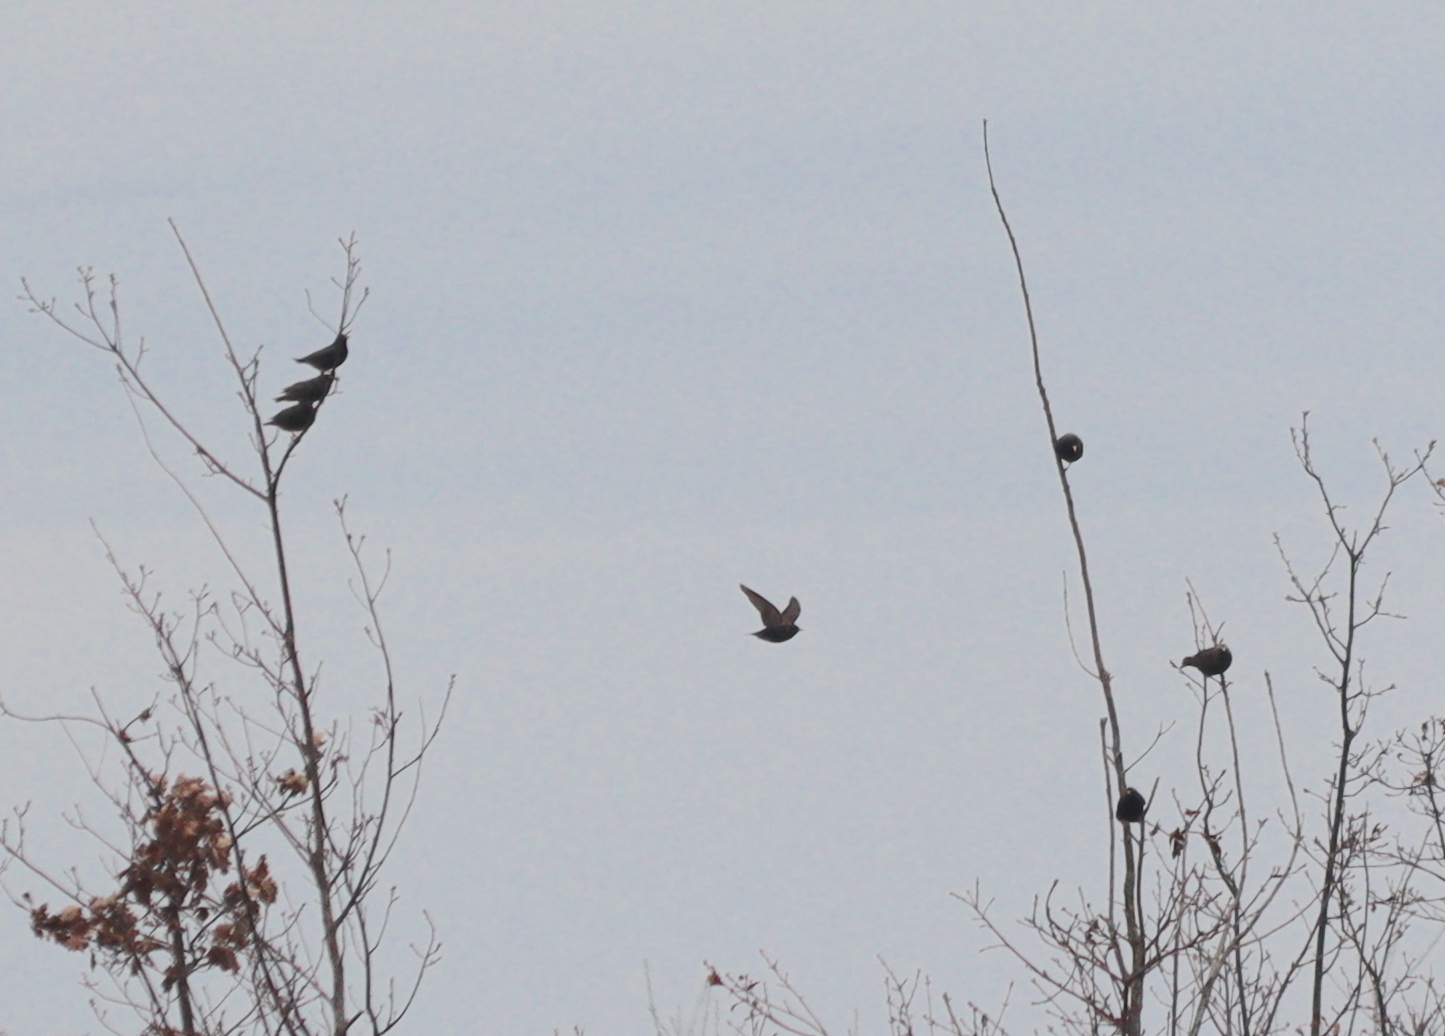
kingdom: Animalia
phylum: Chordata
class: Aves
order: Passeriformes
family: Sturnidae
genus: Sturnus
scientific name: Sturnus vulgaris
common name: Common starling
